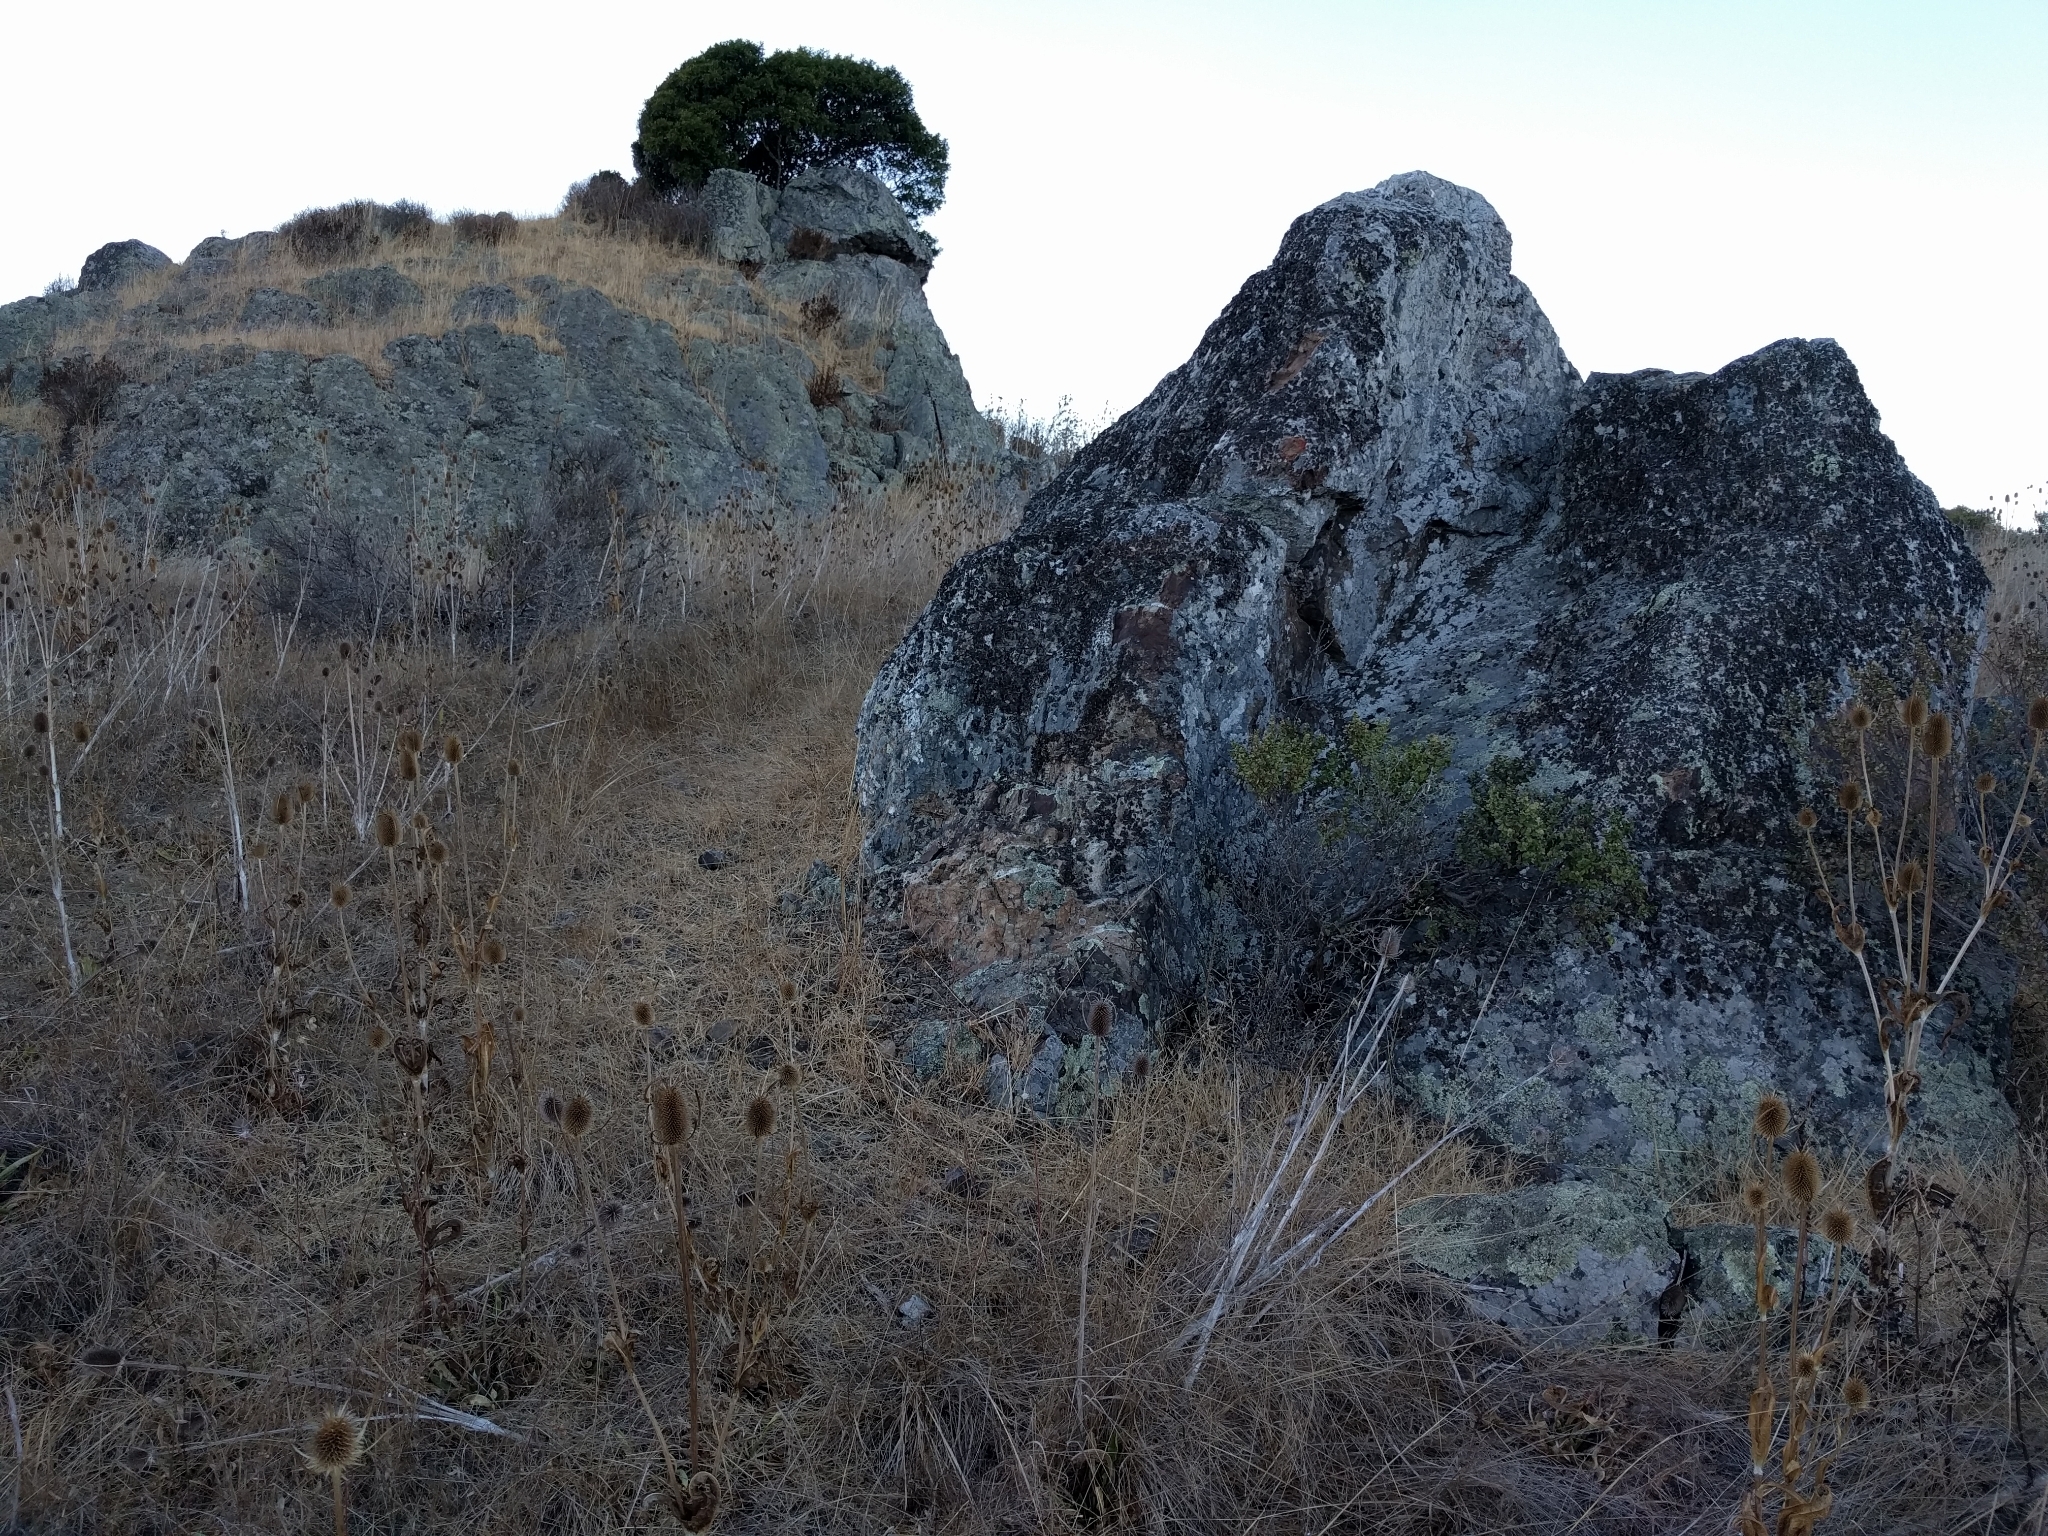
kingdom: Fungi
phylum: Ascomycota
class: Lecanoromycetes
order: Umbilicariales
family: Umbilicariaceae
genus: Umbilicaria
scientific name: Umbilicaria phaea
